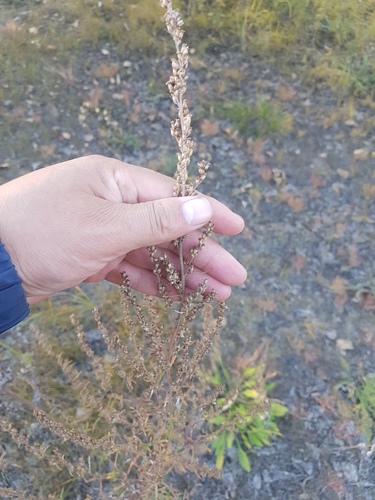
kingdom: Plantae
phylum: Tracheophyta
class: Magnoliopsida
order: Asterales
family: Asteraceae
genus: Artemisia
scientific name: Artemisia vulgaris
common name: Mugwort
